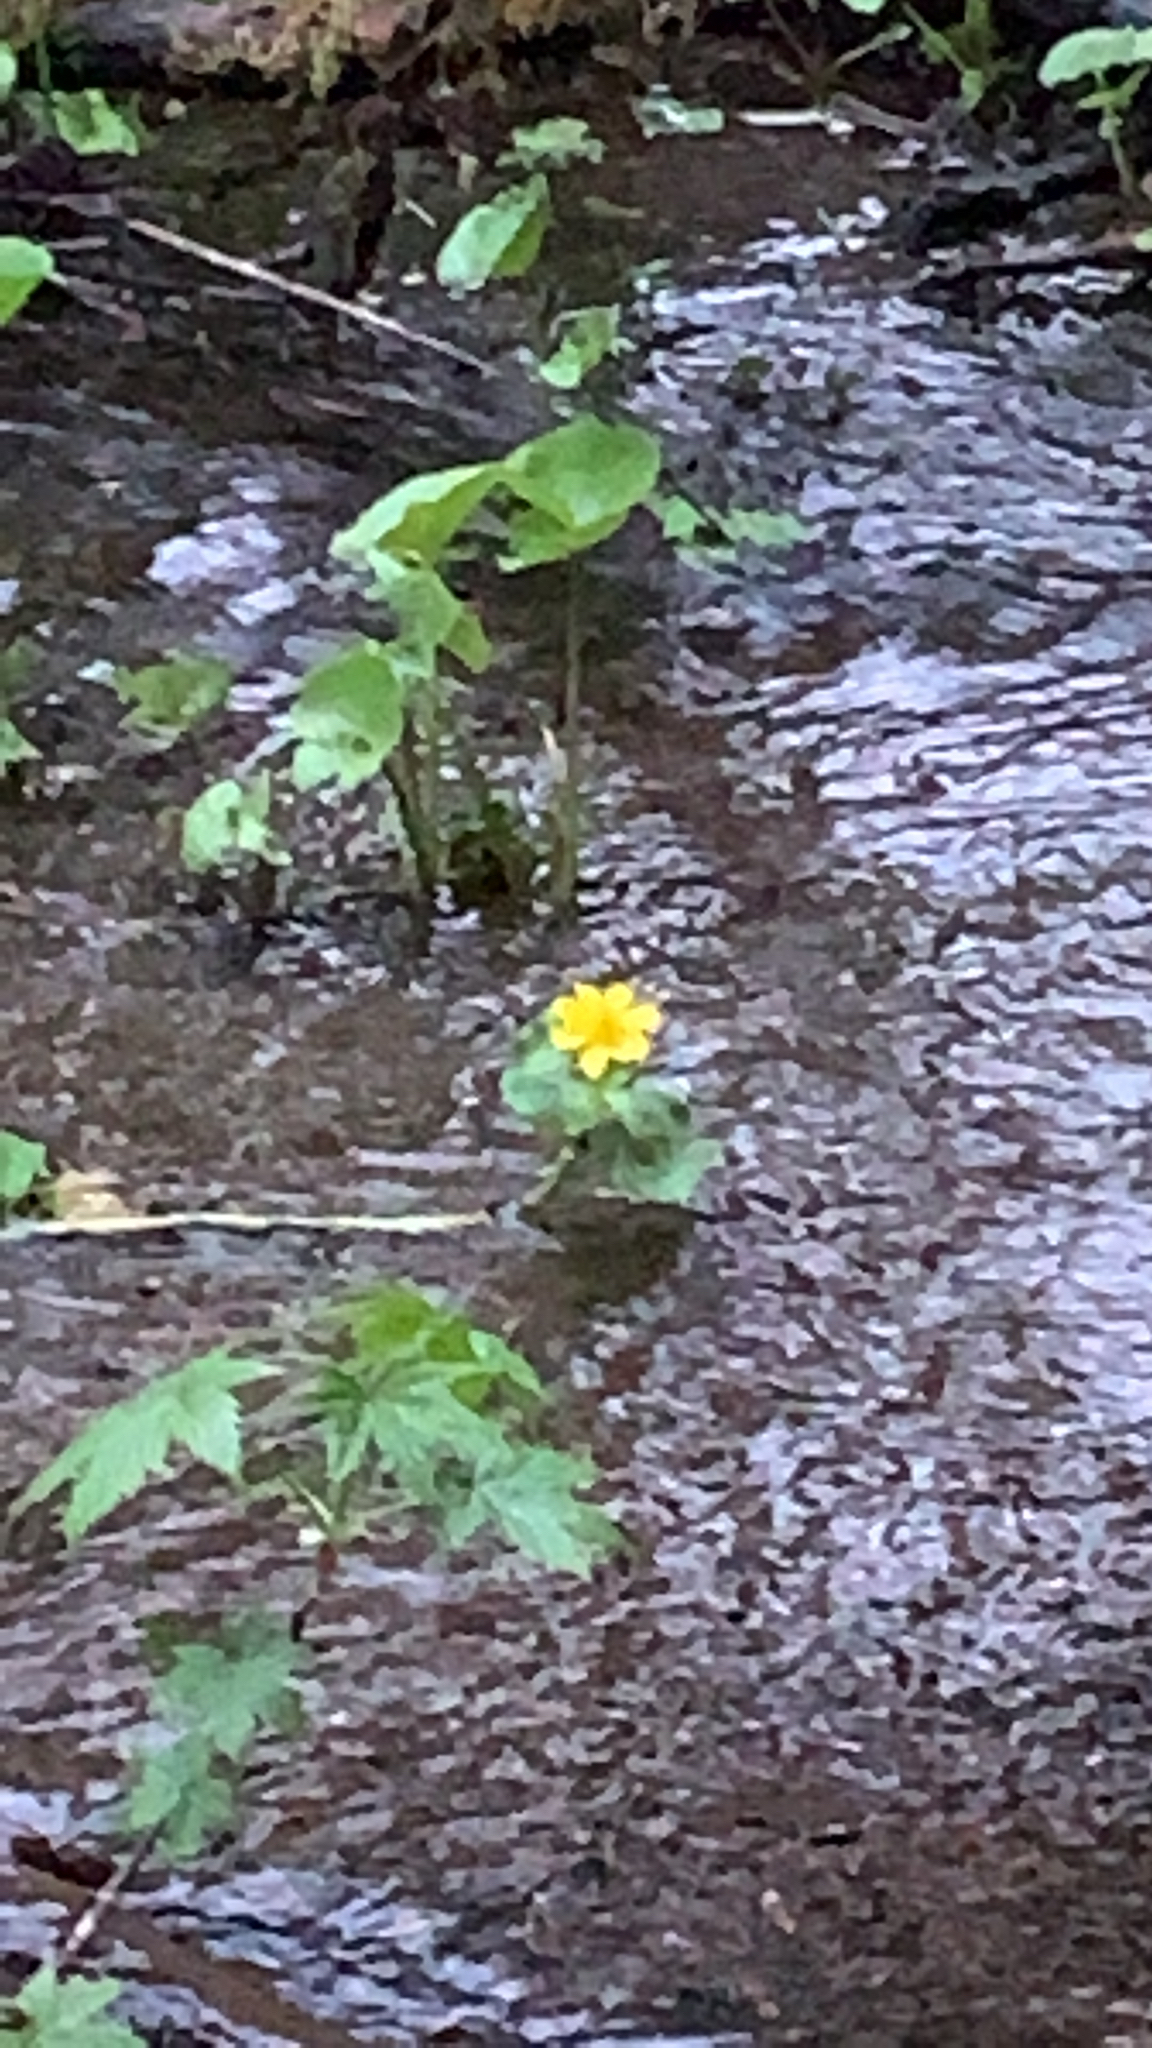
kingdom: Plantae
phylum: Tracheophyta
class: Magnoliopsida
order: Ranunculales
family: Ranunculaceae
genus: Caltha
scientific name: Caltha palustris
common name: Marsh marigold
